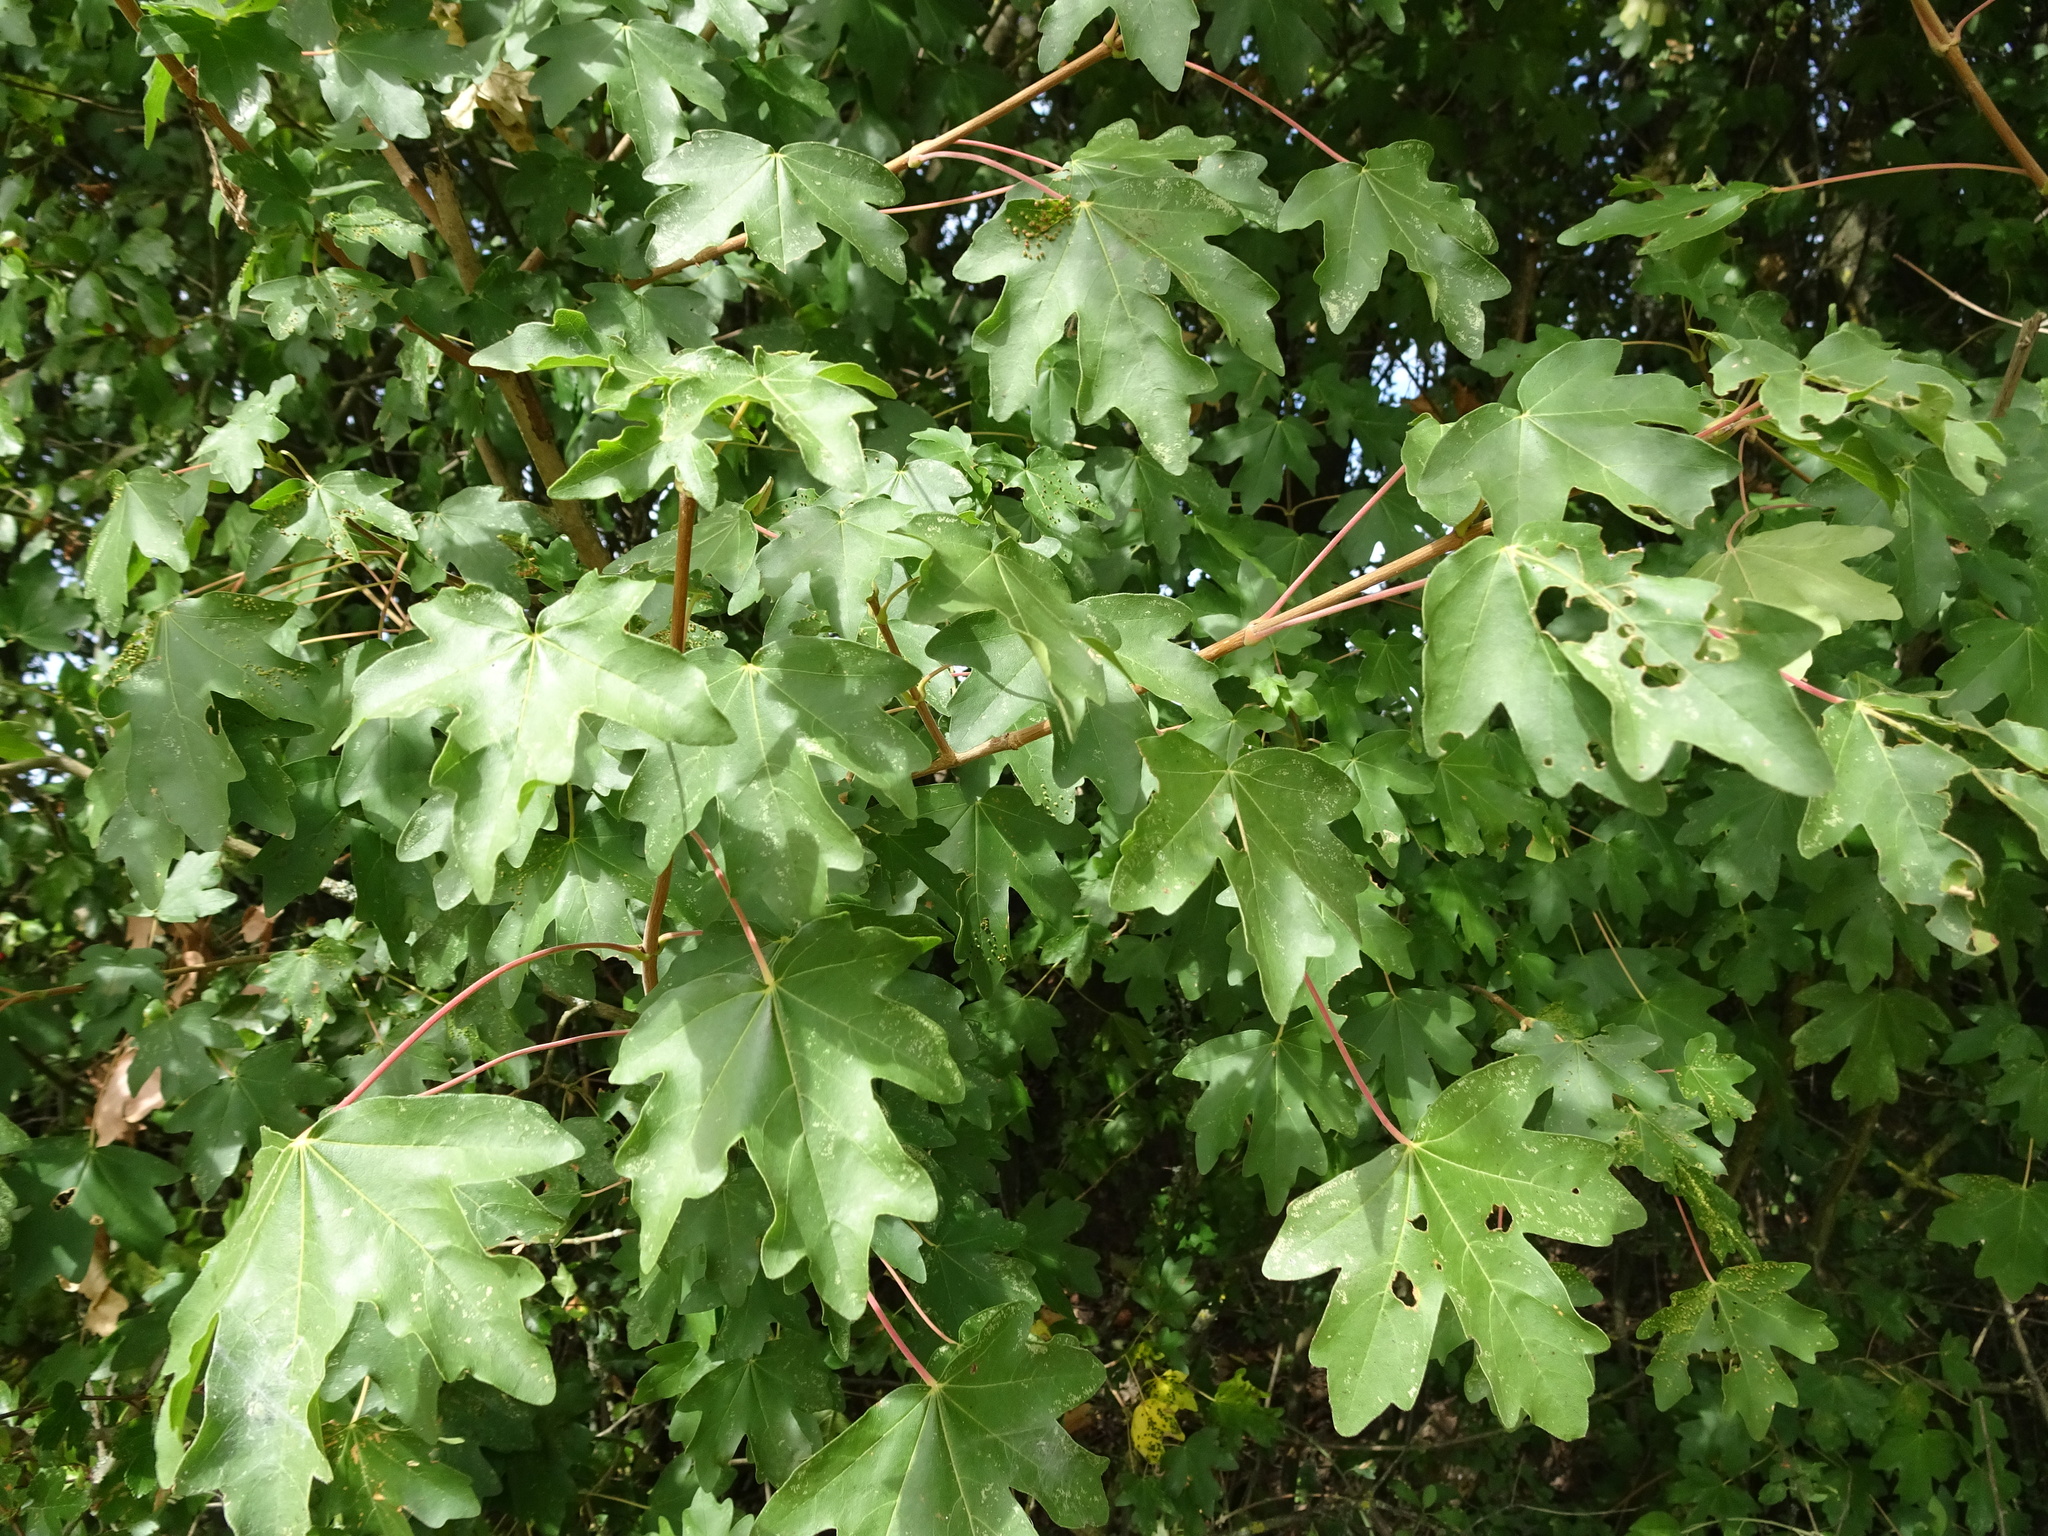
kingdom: Plantae
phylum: Tracheophyta
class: Magnoliopsida
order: Sapindales
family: Sapindaceae
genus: Acer
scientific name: Acer campestre
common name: Field maple
